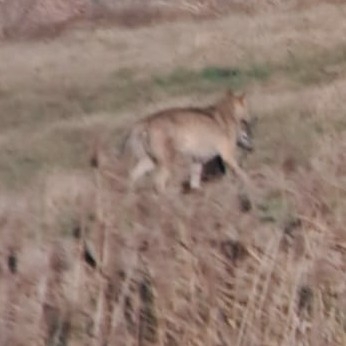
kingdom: Animalia
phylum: Chordata
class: Mammalia
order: Artiodactyla
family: Cervidae
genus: Capreolus
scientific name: Capreolus capreolus
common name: Western roe deer
